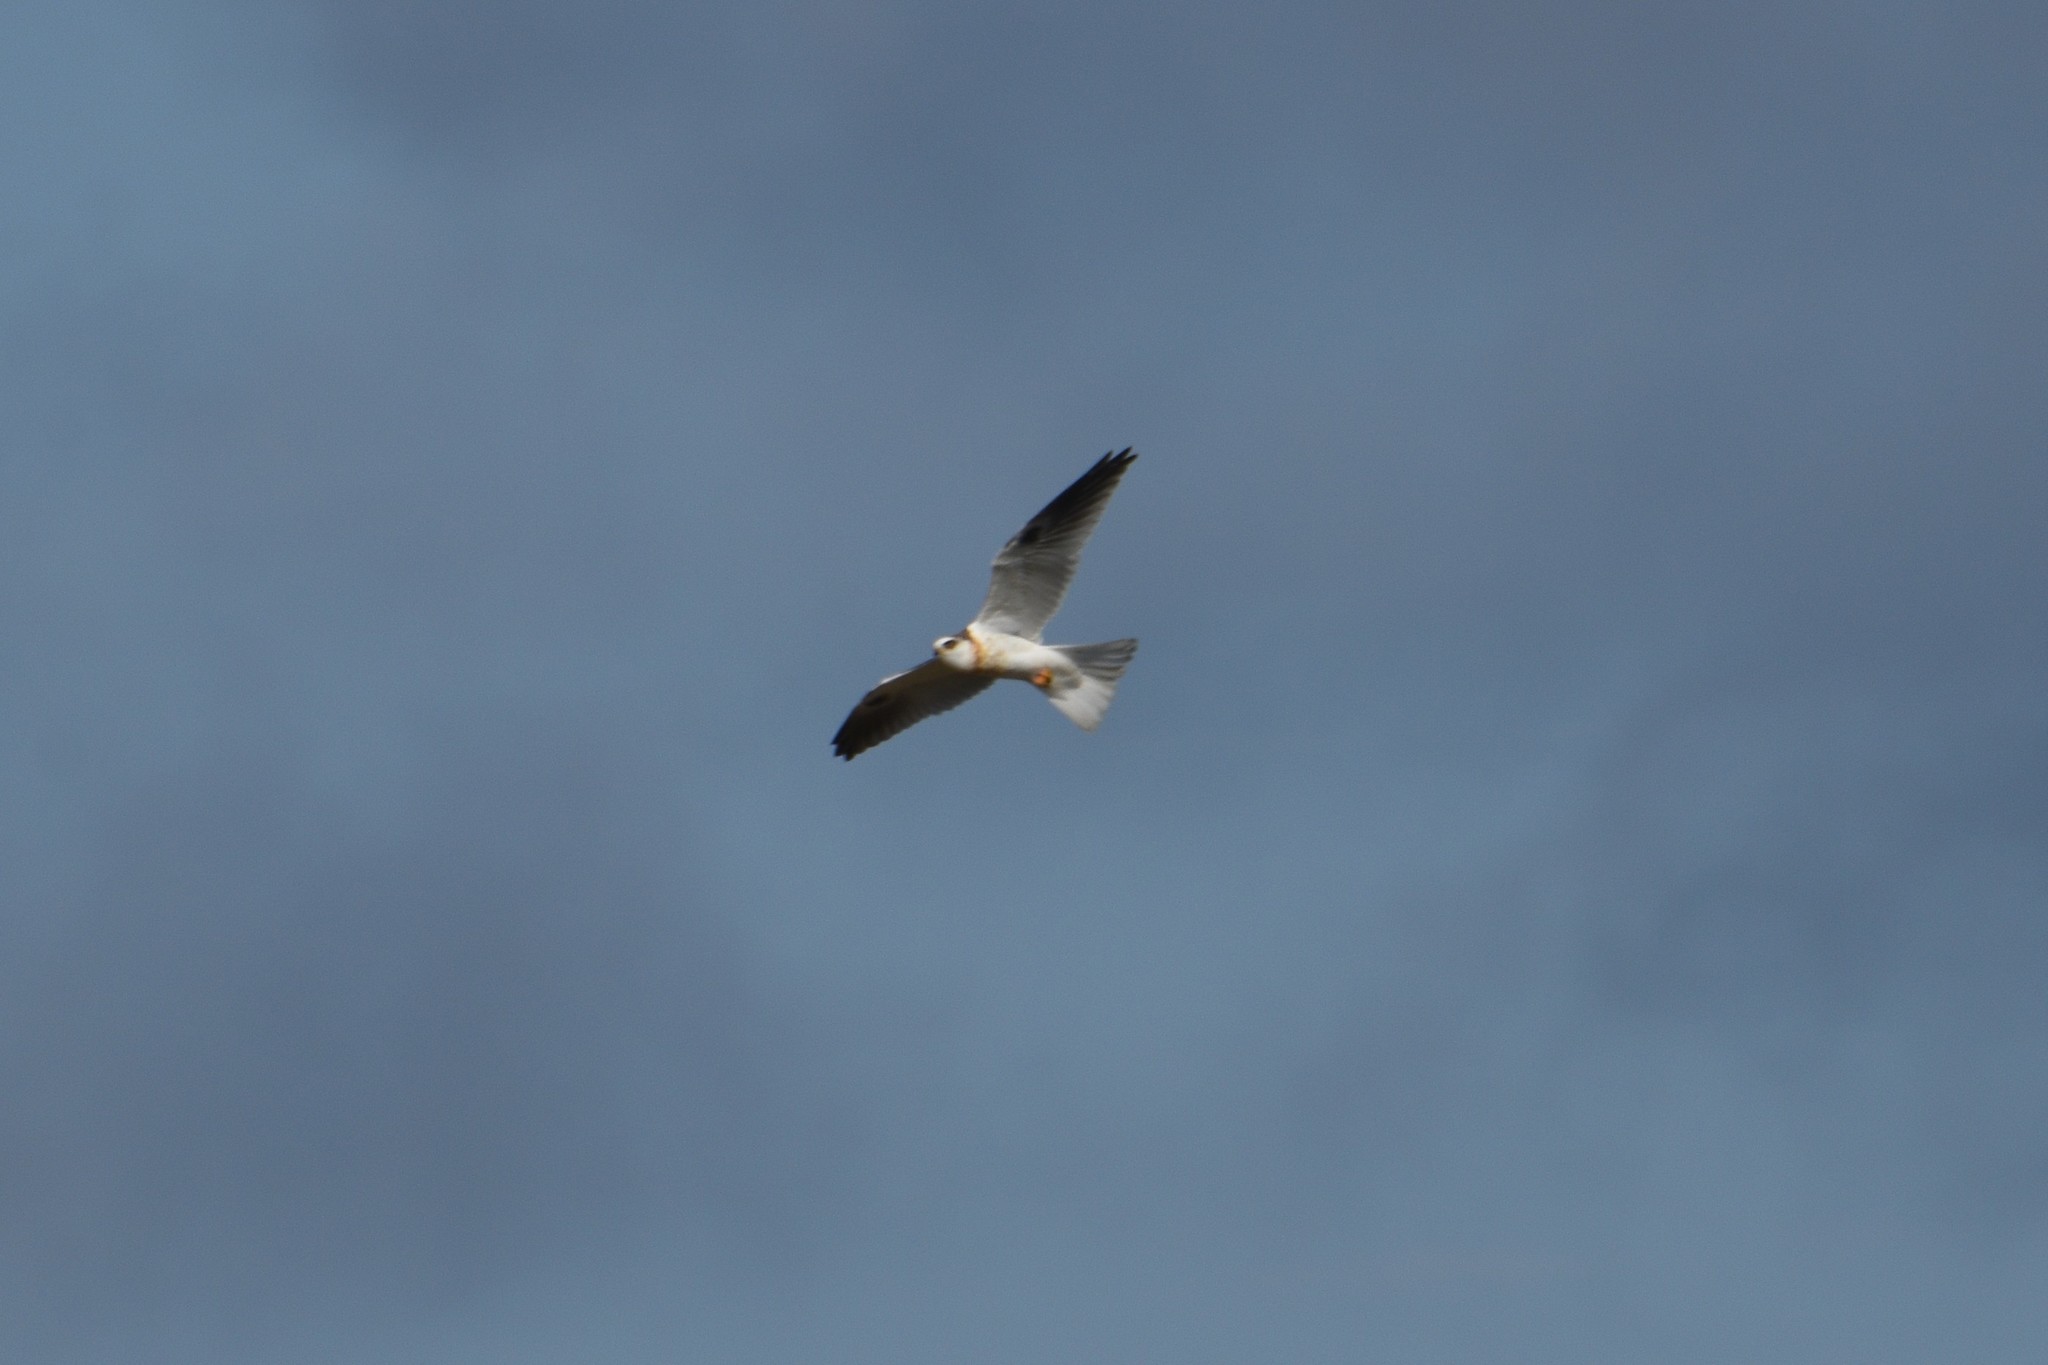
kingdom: Animalia
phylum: Chordata
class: Aves
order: Accipitriformes
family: Accipitridae
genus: Elanus
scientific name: Elanus leucurus
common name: White-tailed kite
